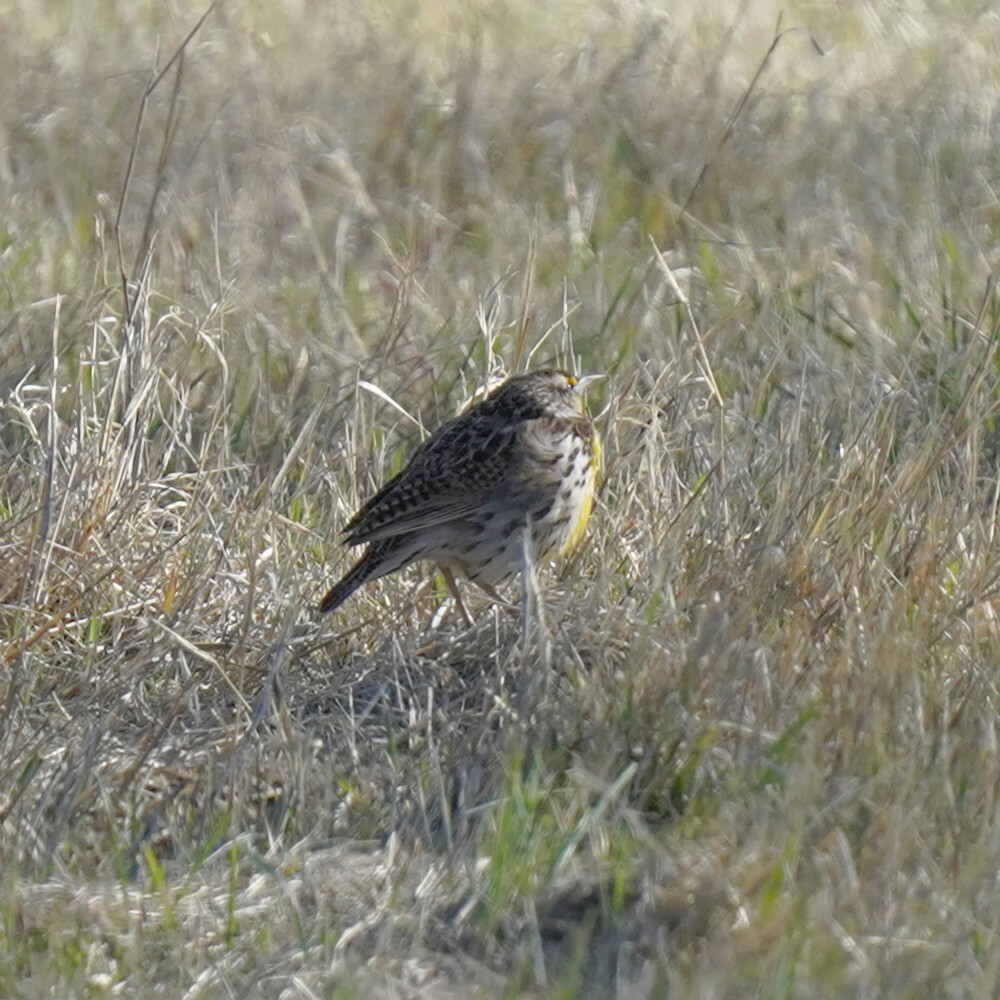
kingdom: Animalia
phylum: Chordata
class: Aves
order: Passeriformes
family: Icteridae
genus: Sturnella
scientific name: Sturnella neglecta
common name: Western meadowlark
